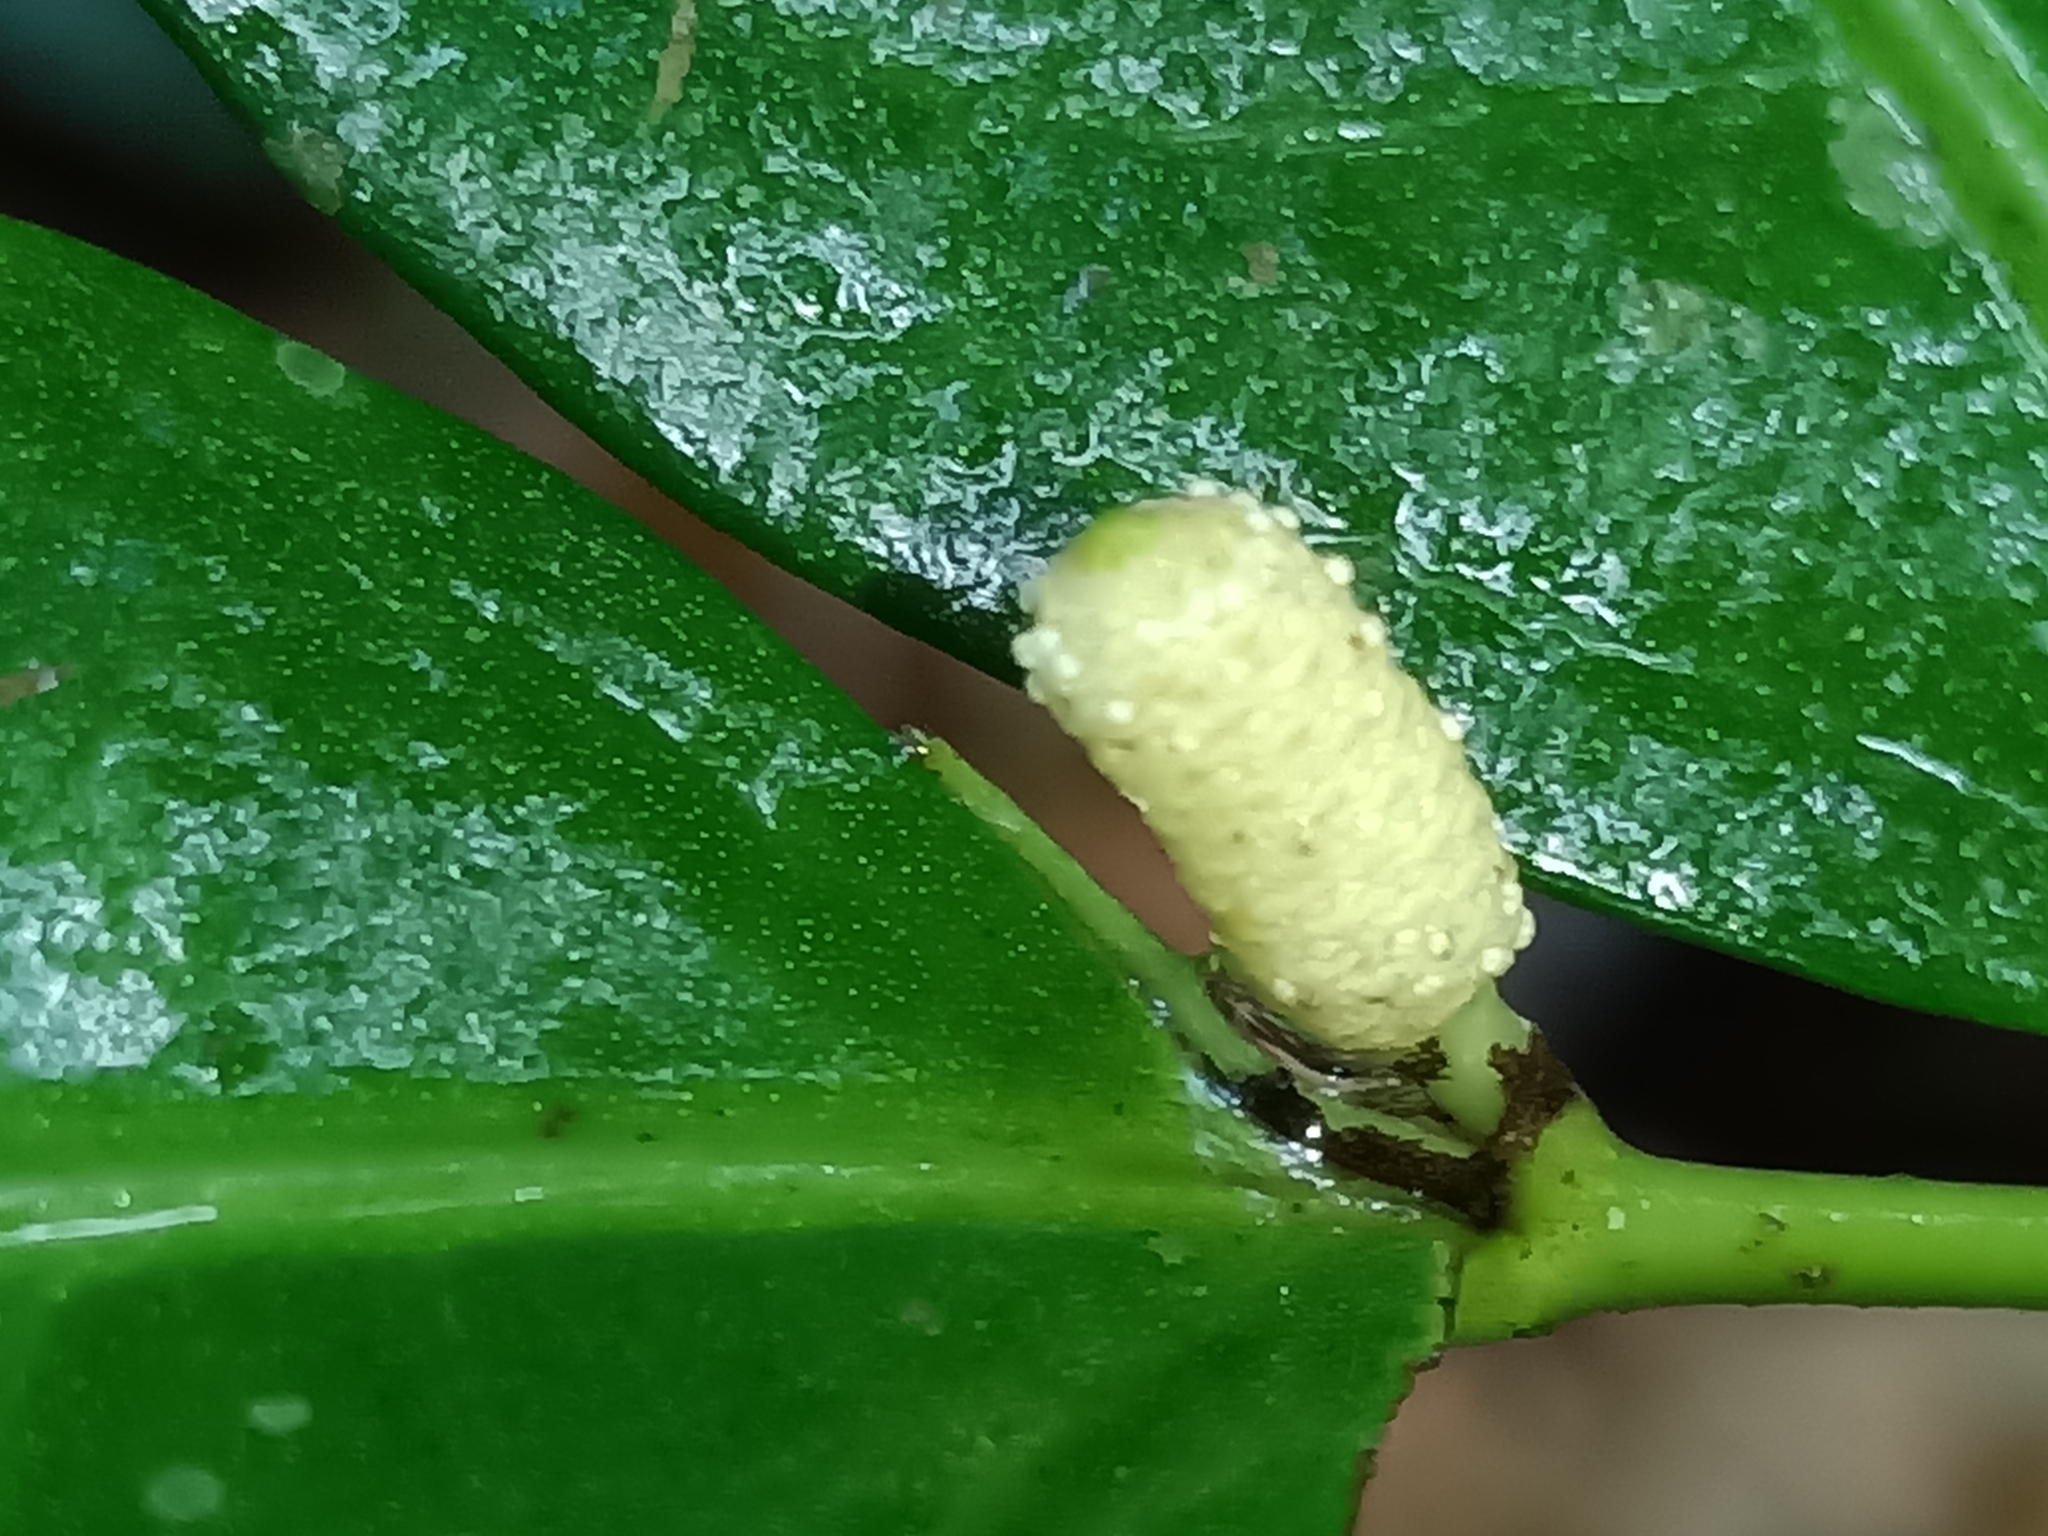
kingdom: Plantae
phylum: Tracheophyta
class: Magnoliopsida
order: Piperales
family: Piperaceae
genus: Piper
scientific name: Piper
